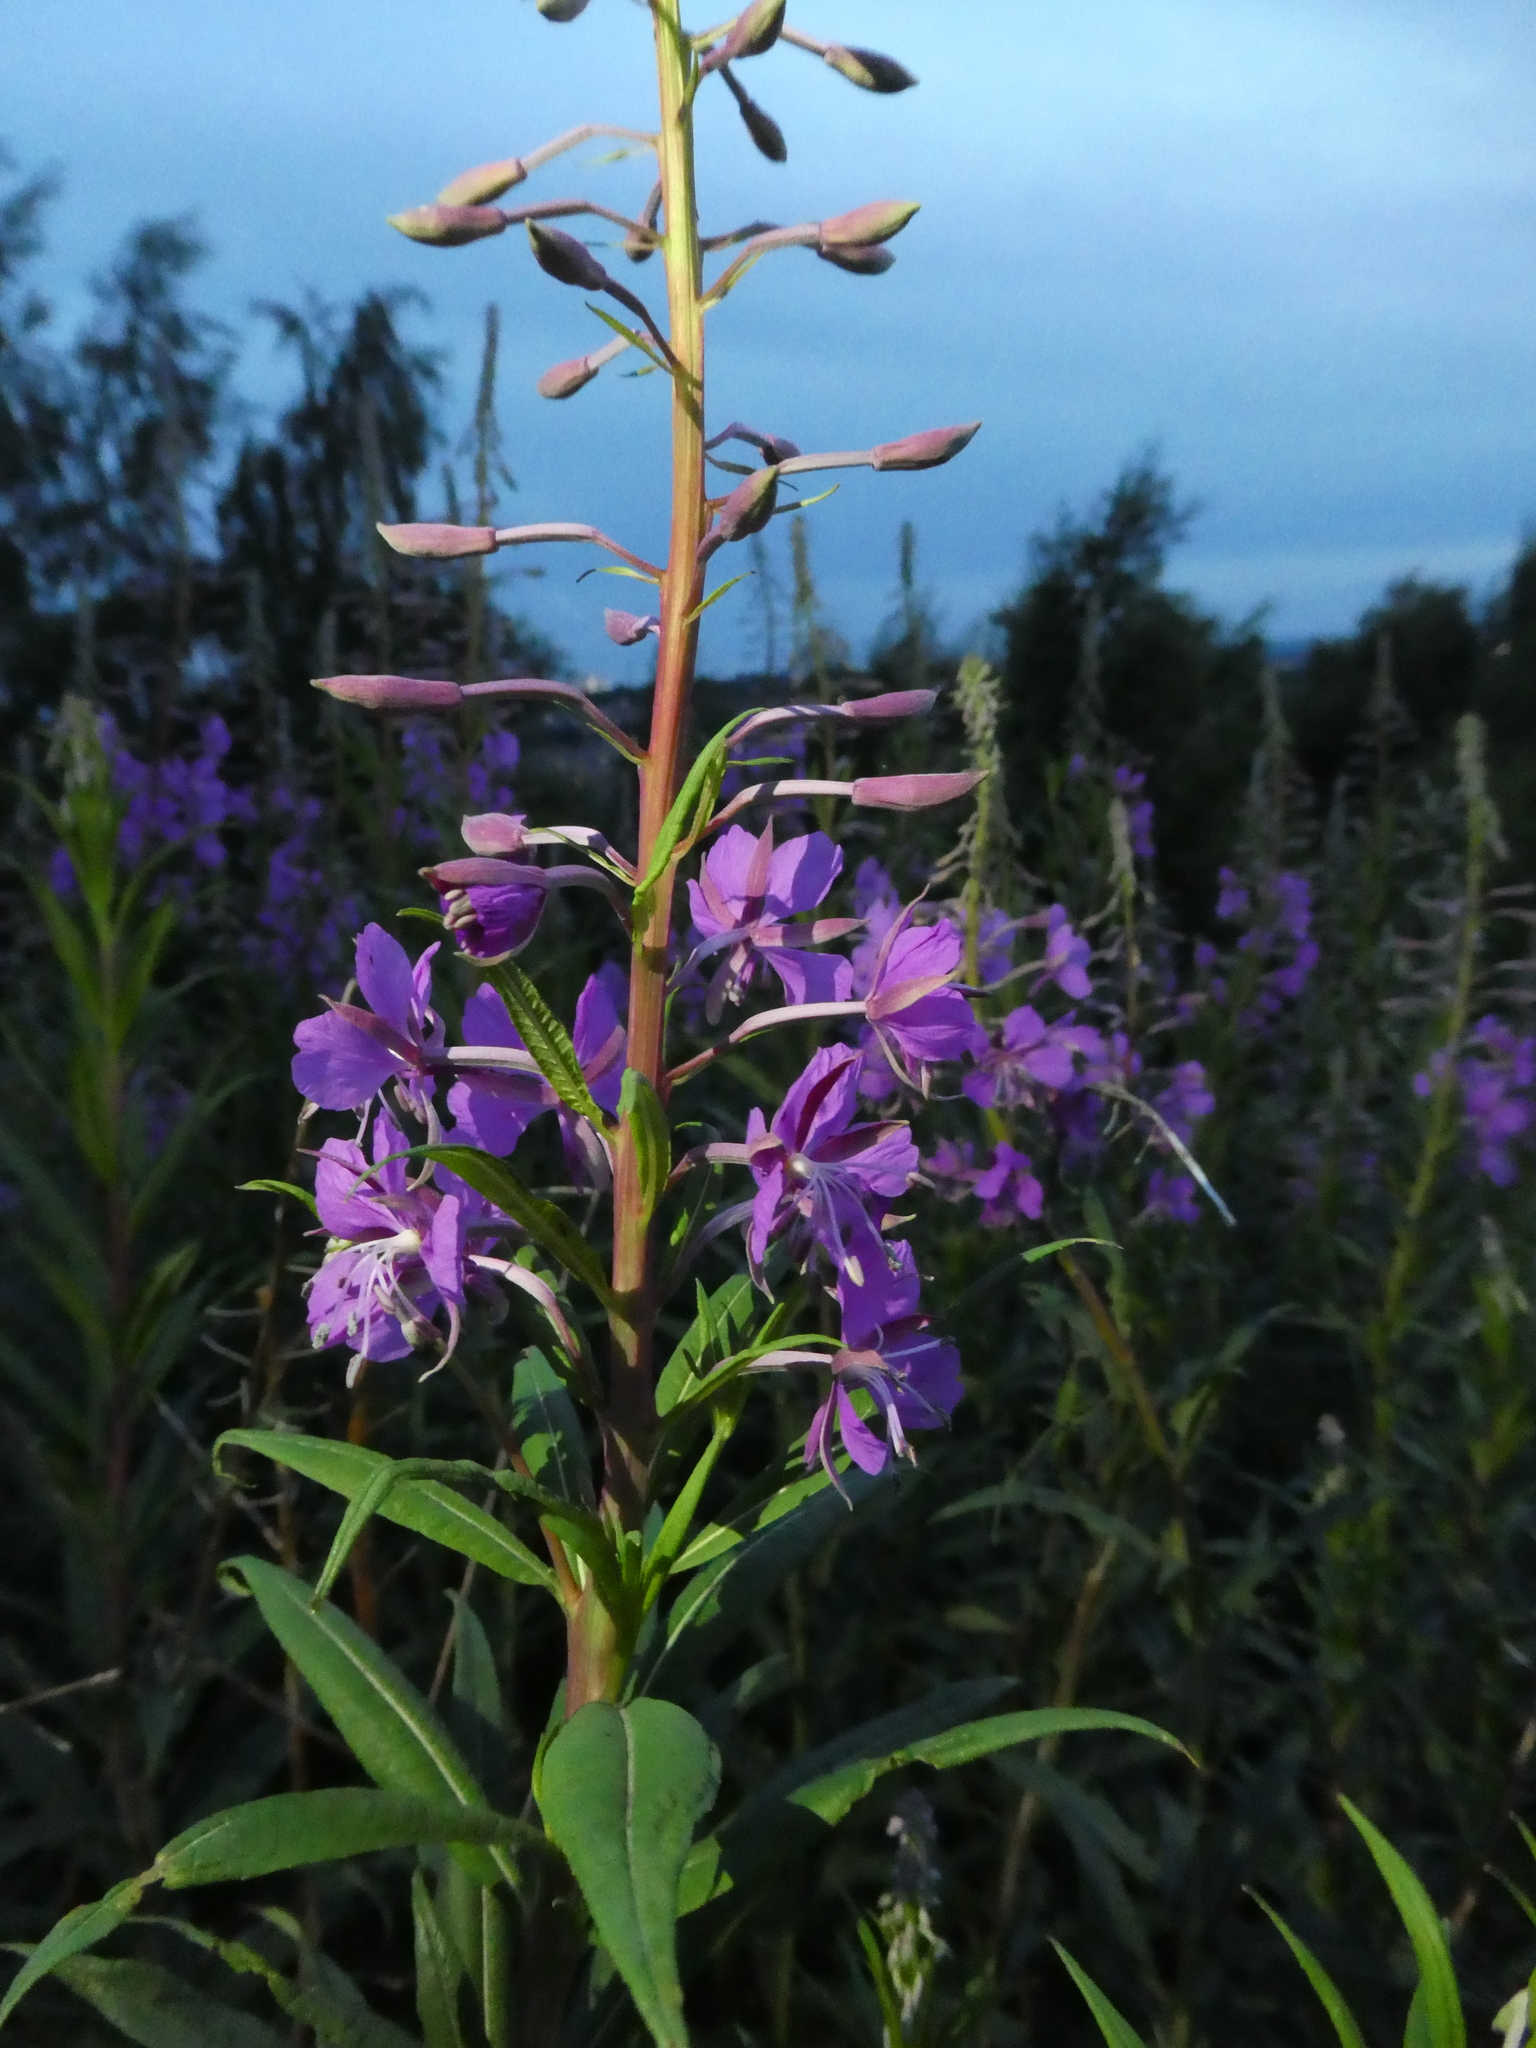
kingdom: Plantae
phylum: Tracheophyta
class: Magnoliopsida
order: Myrtales
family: Onagraceae
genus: Chamaenerion
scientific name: Chamaenerion angustifolium
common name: Fireweed
